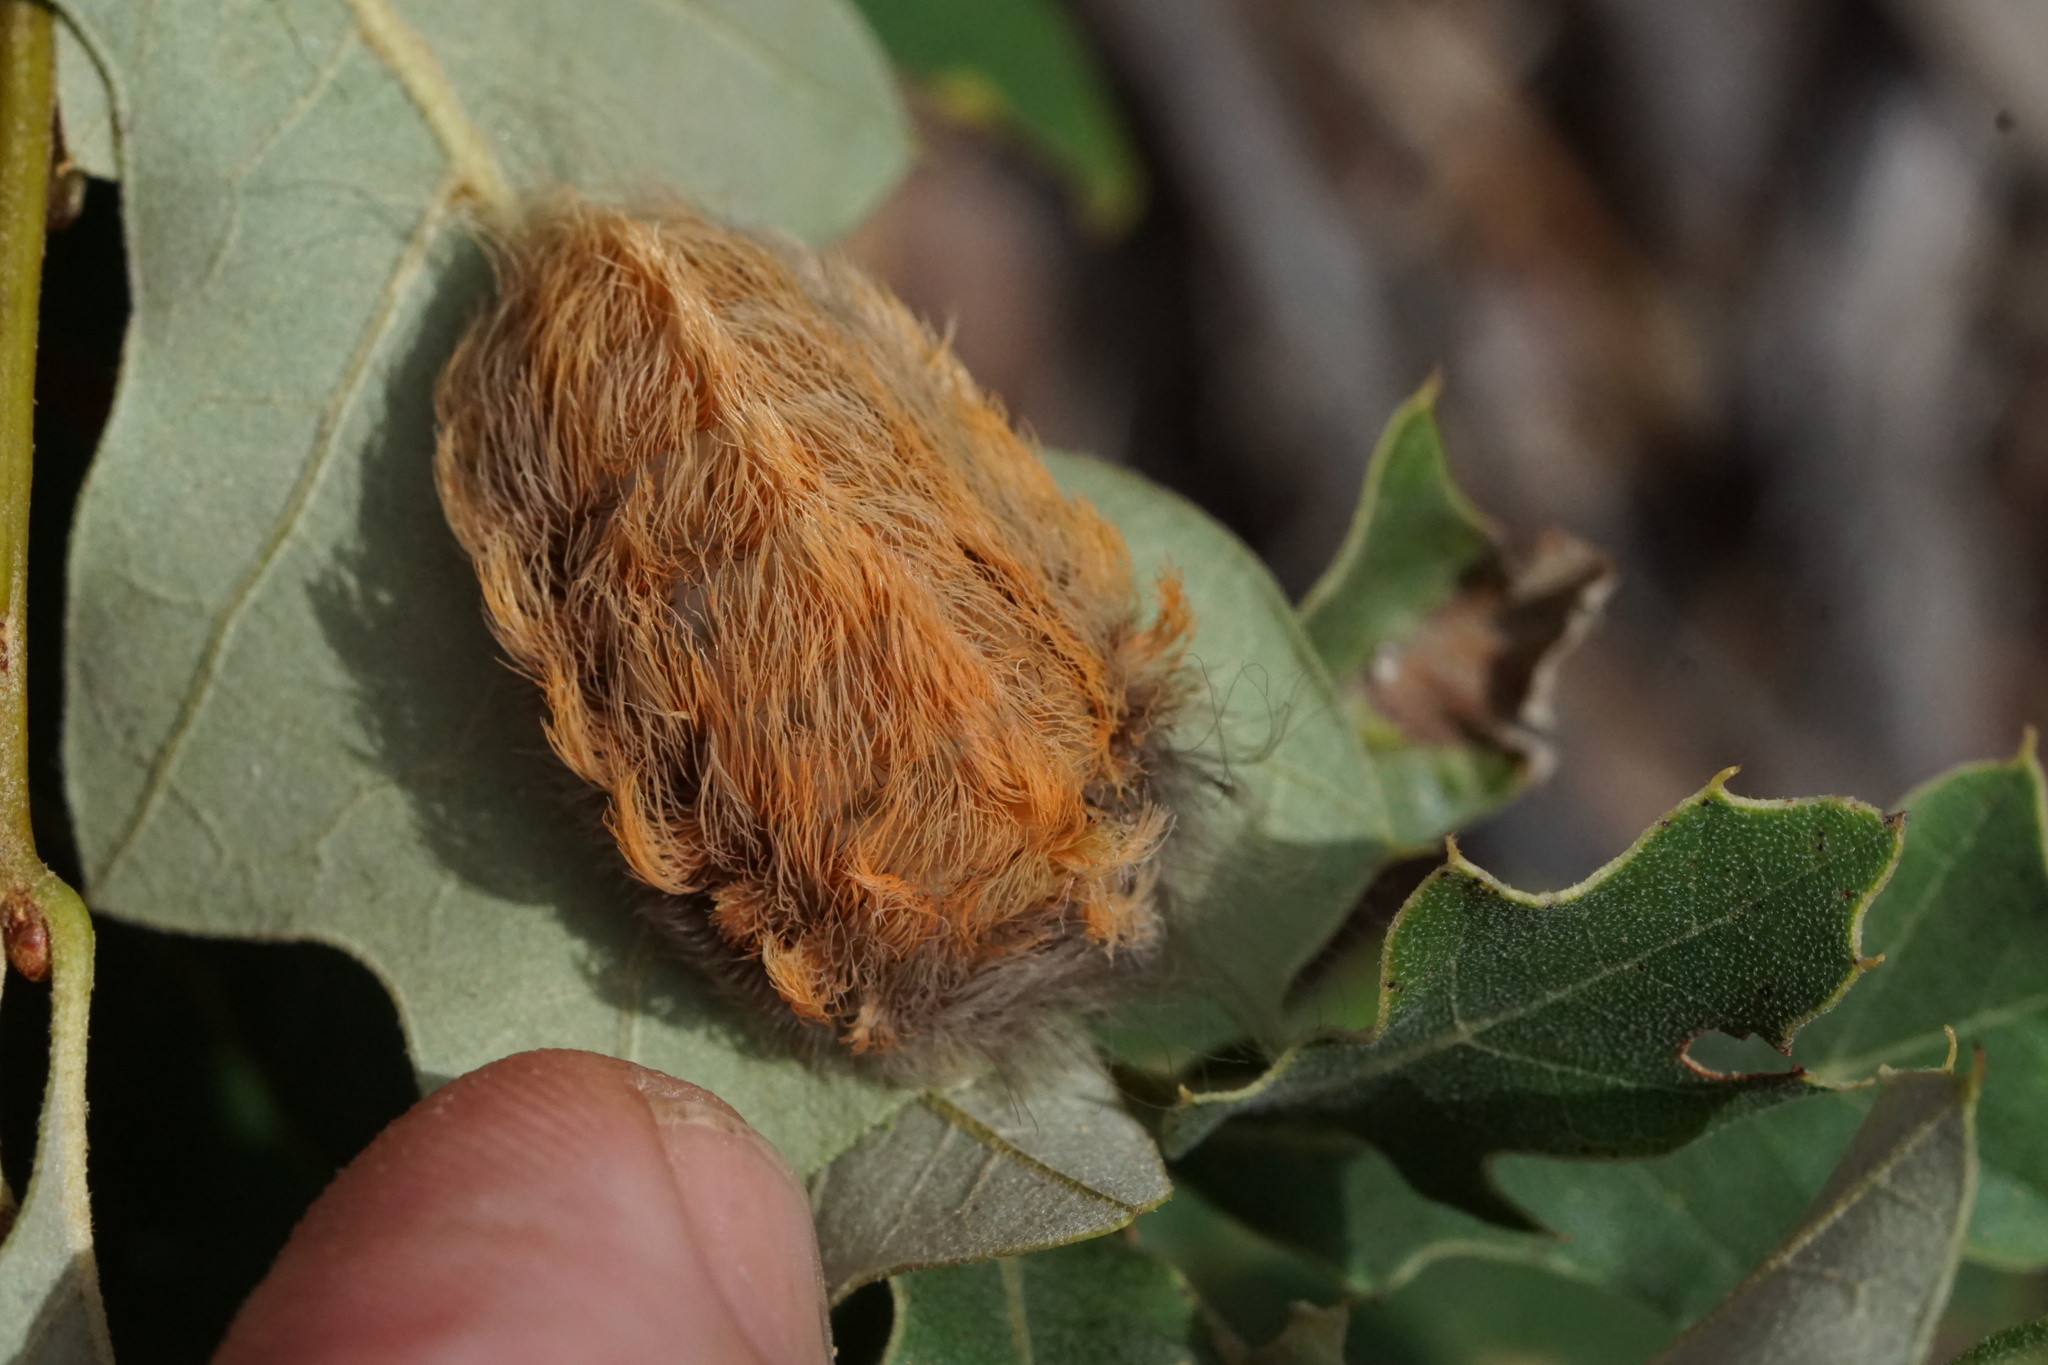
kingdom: Animalia
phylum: Arthropoda
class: Insecta
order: Lepidoptera
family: Megalopygidae
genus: Megalopyge
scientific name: Megalopyge crispata
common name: Black-waved flannel moth
